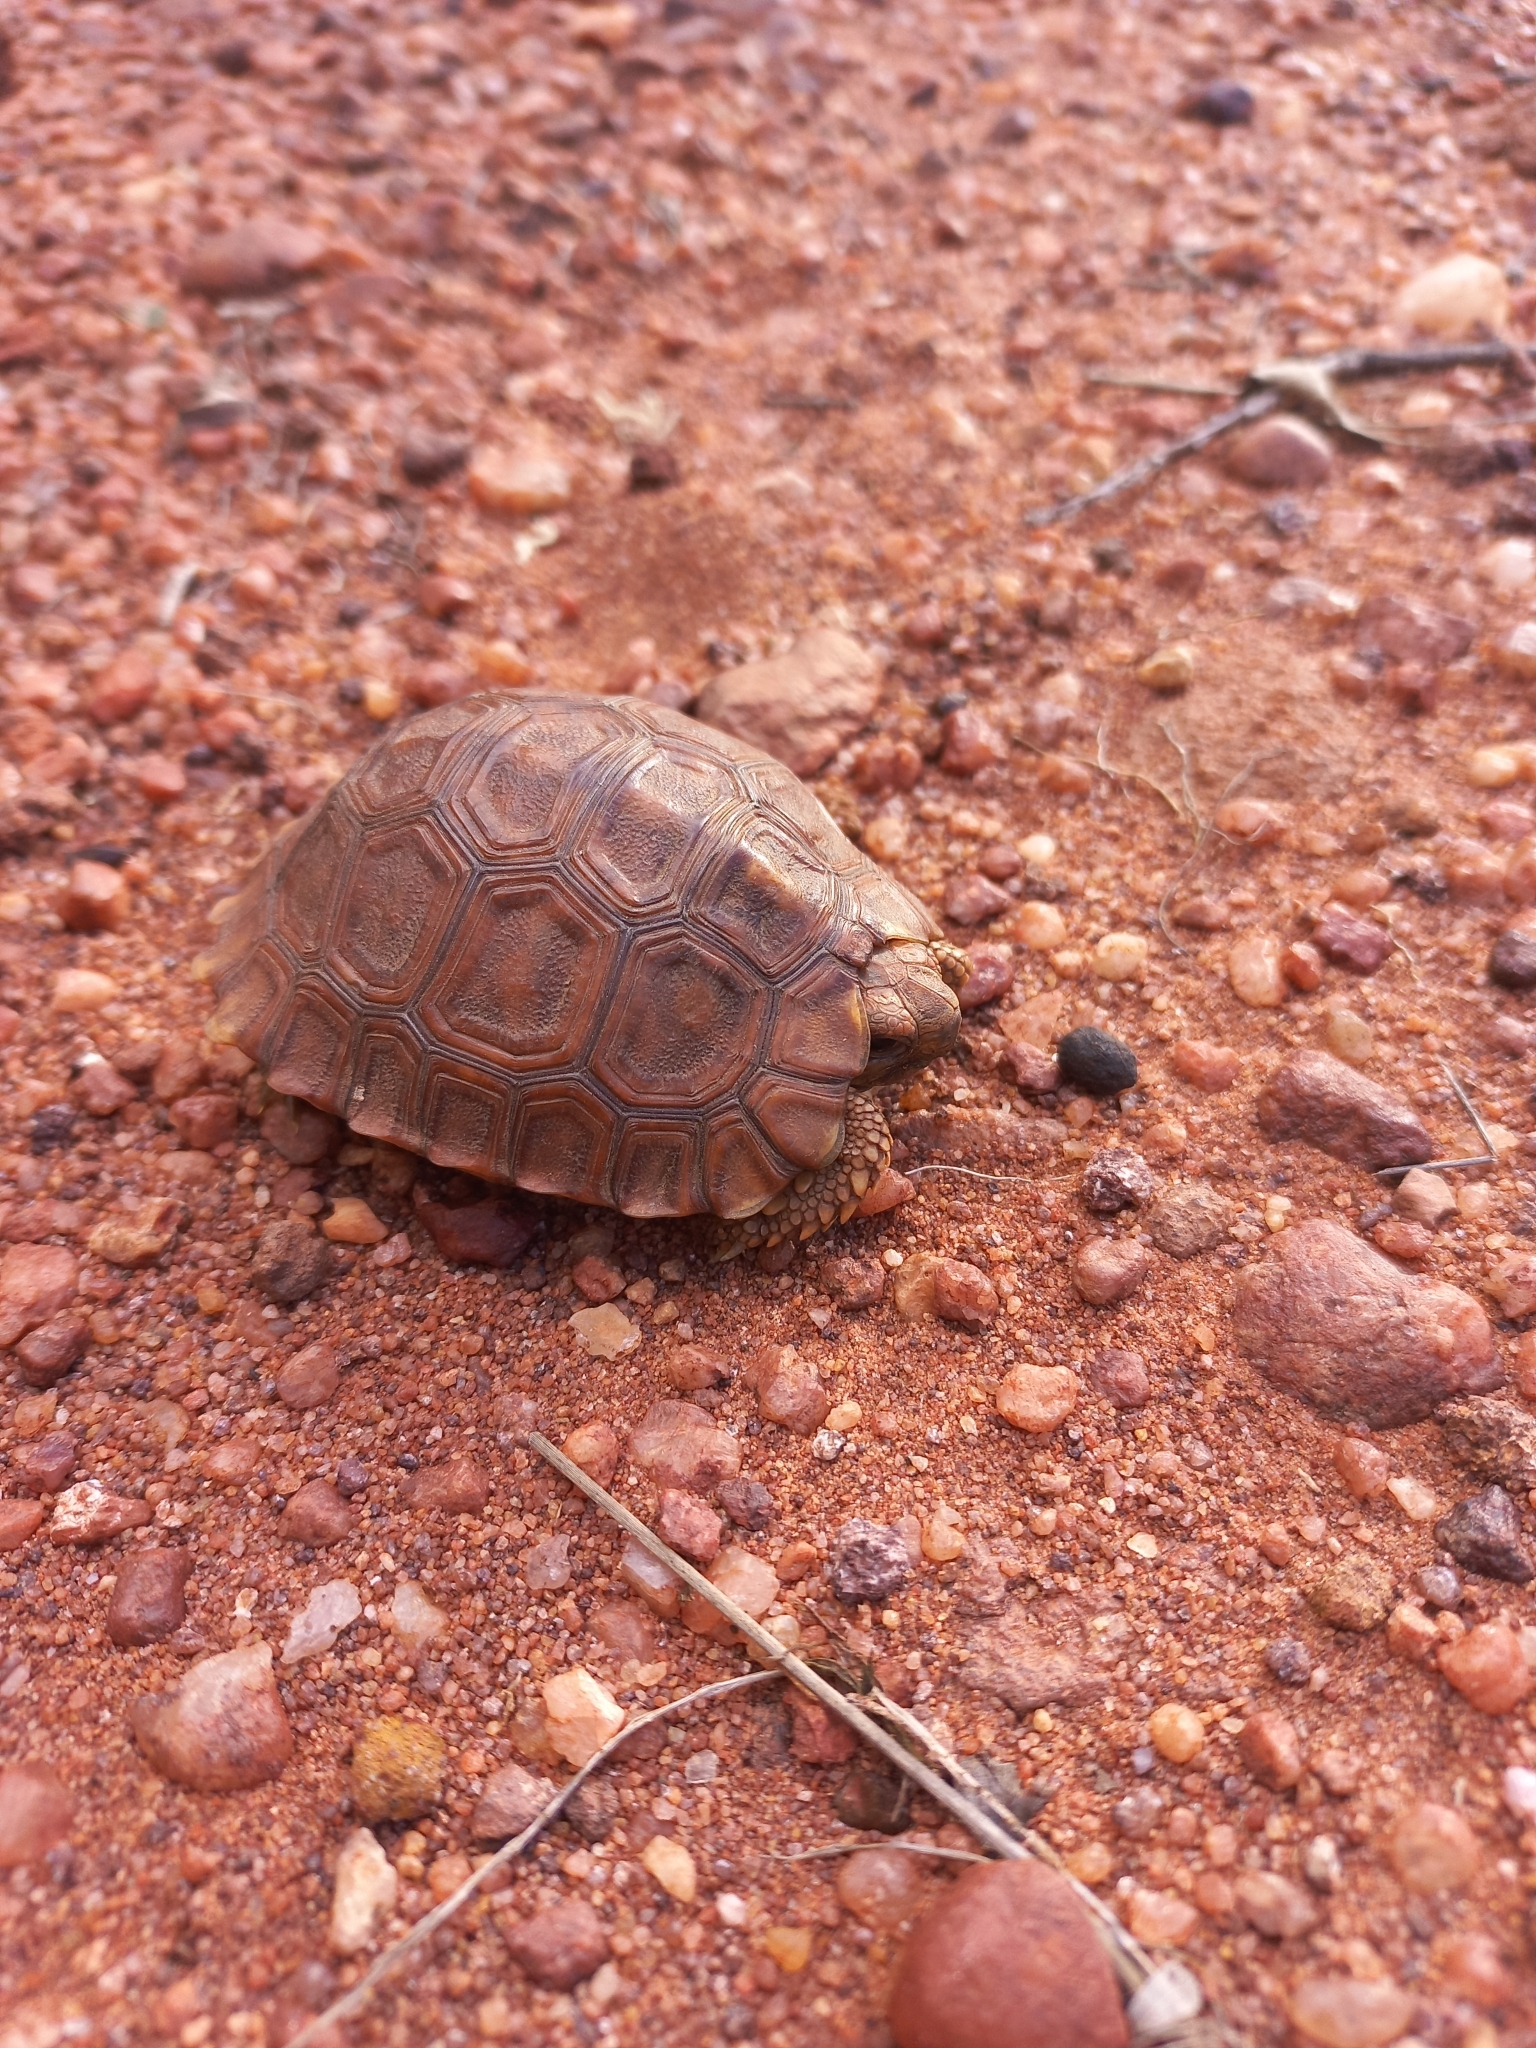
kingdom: Animalia
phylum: Chordata
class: Testudines
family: Testudinidae
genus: Kinixys
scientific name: Kinixys lobatsiana
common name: Lobatse hinge-back tortoise
